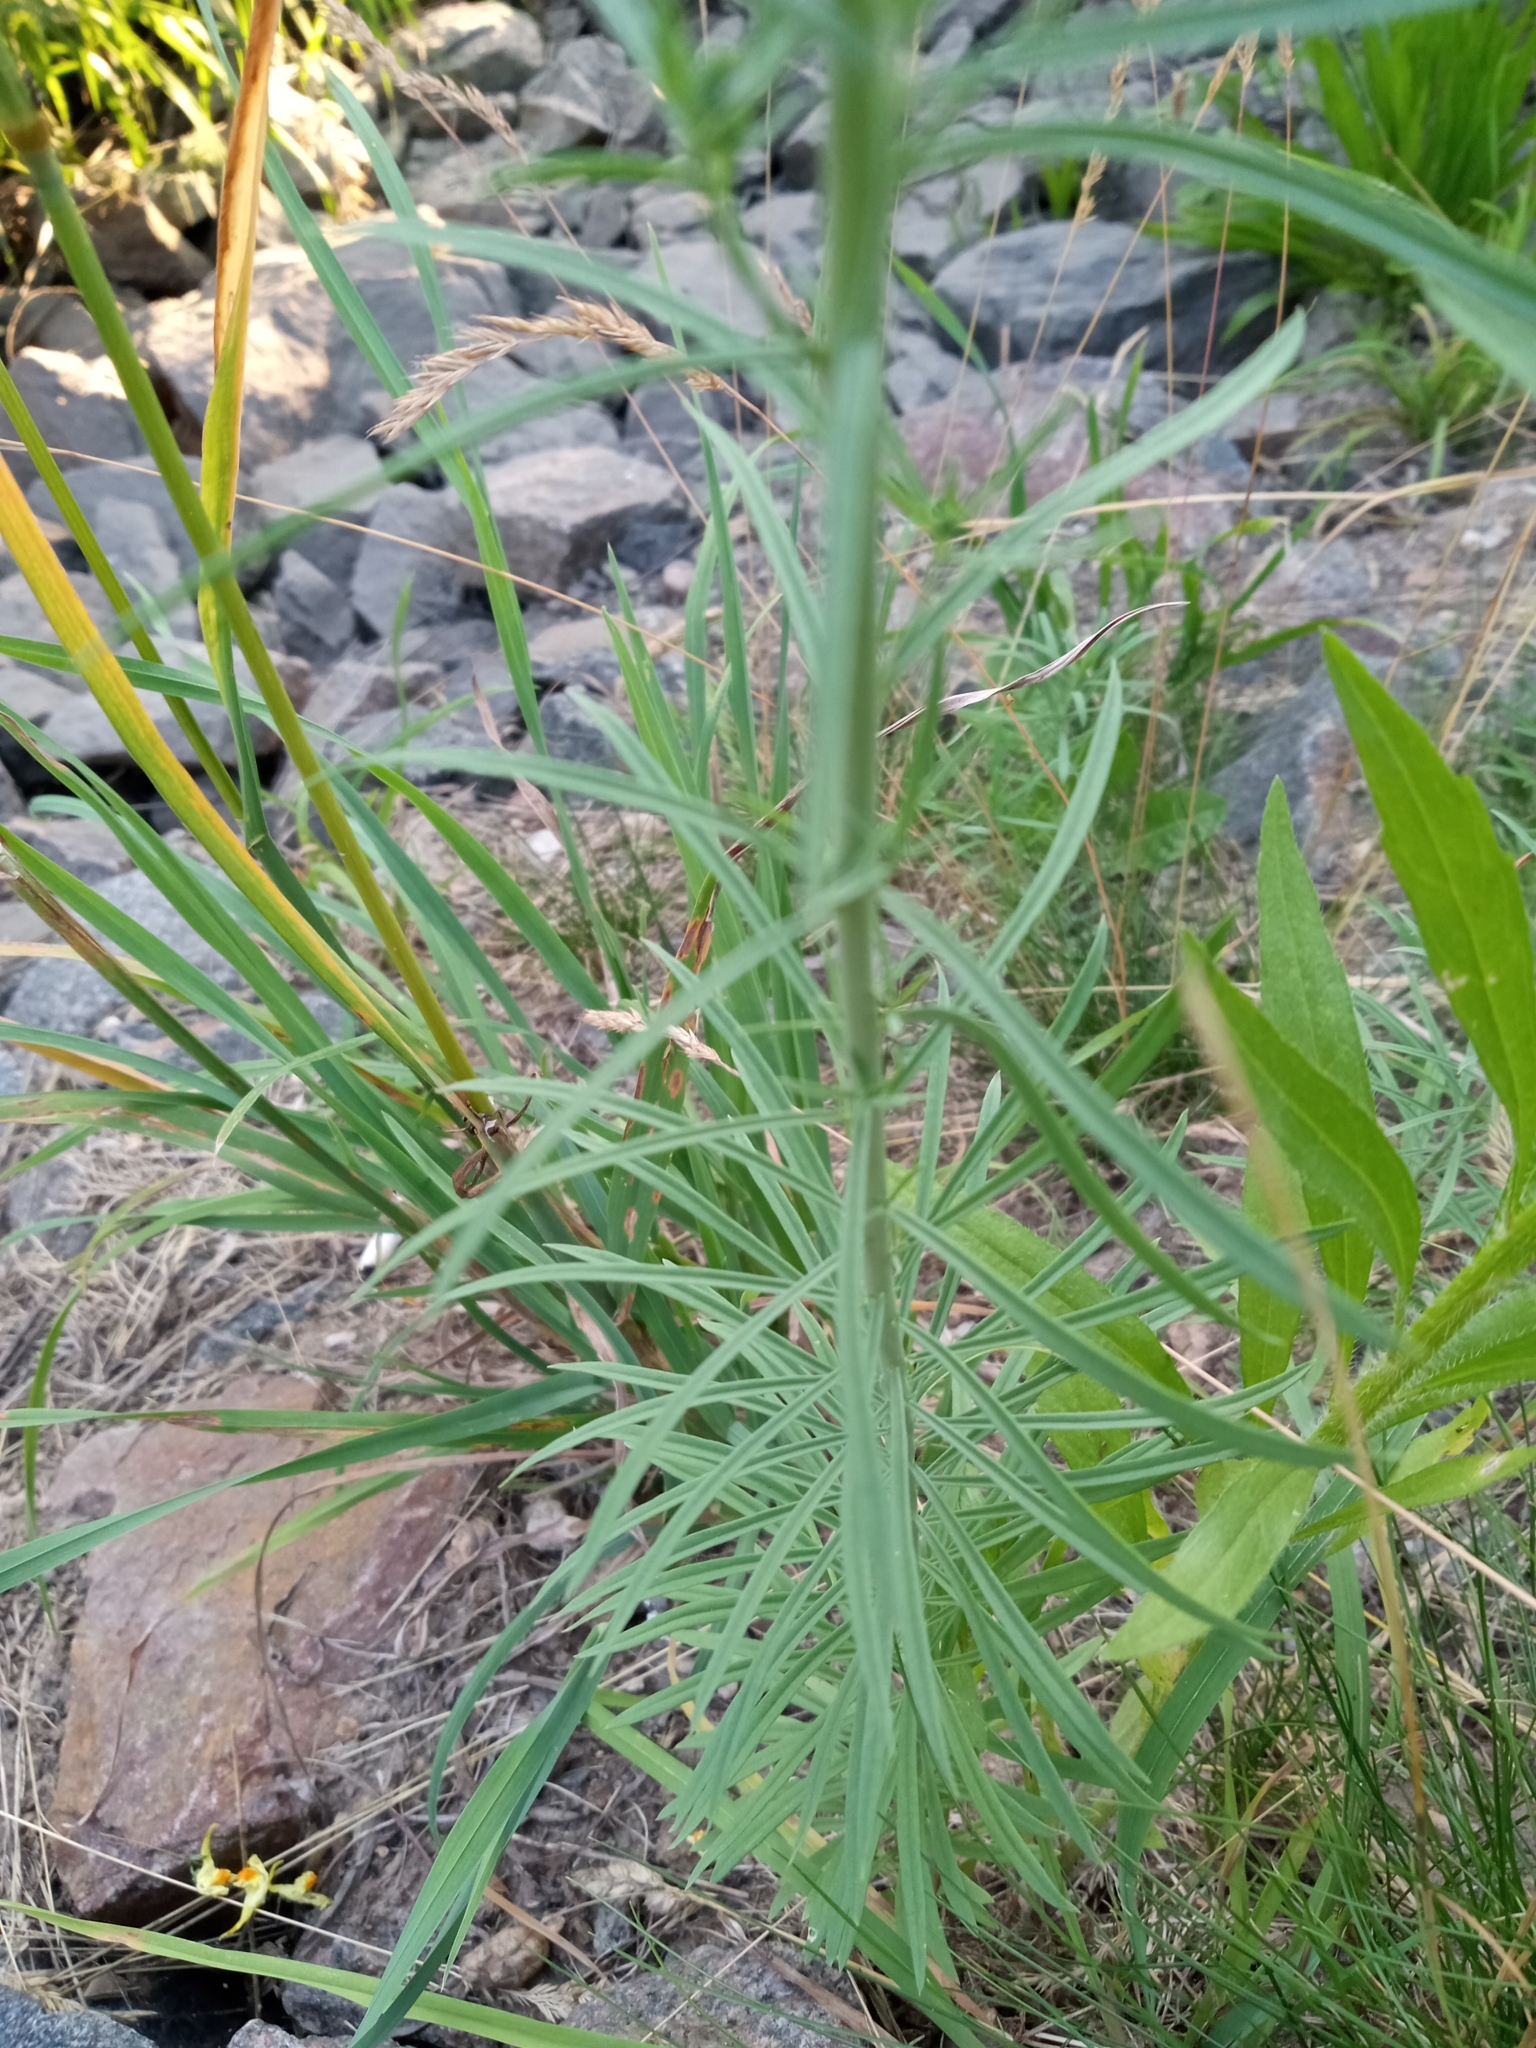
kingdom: Plantae
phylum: Tracheophyta
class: Magnoliopsida
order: Lamiales
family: Plantaginaceae
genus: Linaria
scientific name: Linaria vulgaris
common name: Butter and eggs
